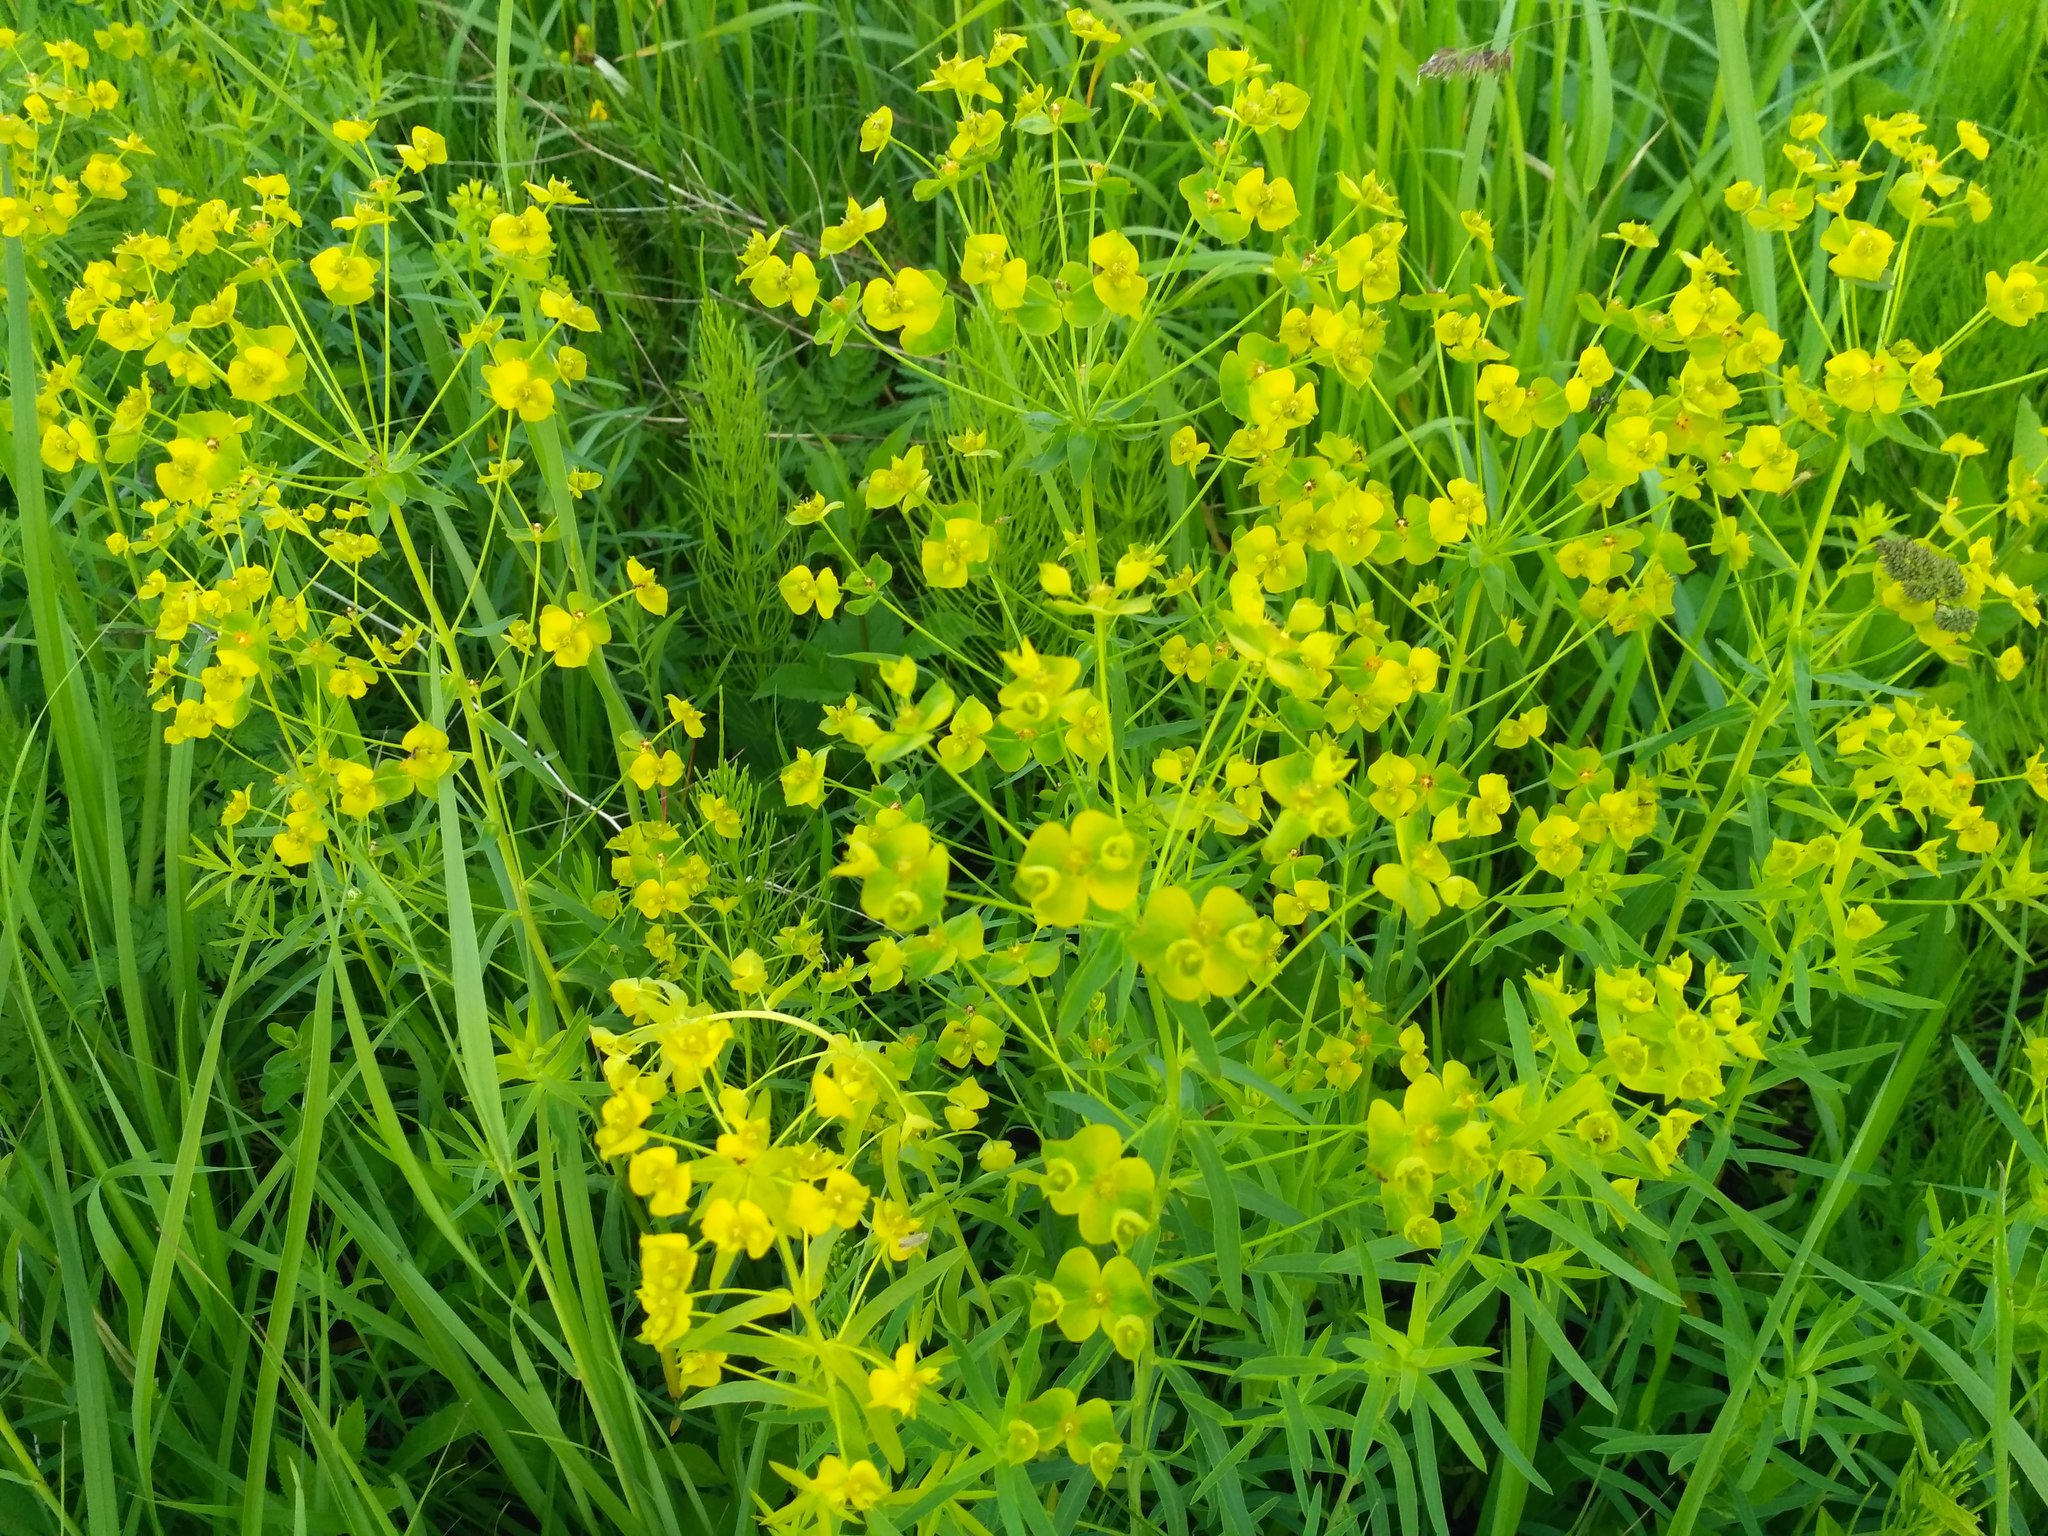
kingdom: Plantae
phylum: Tracheophyta
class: Magnoliopsida
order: Malpighiales
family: Euphorbiaceae
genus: Euphorbia
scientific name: Euphorbia virgata
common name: Leafy spurge
